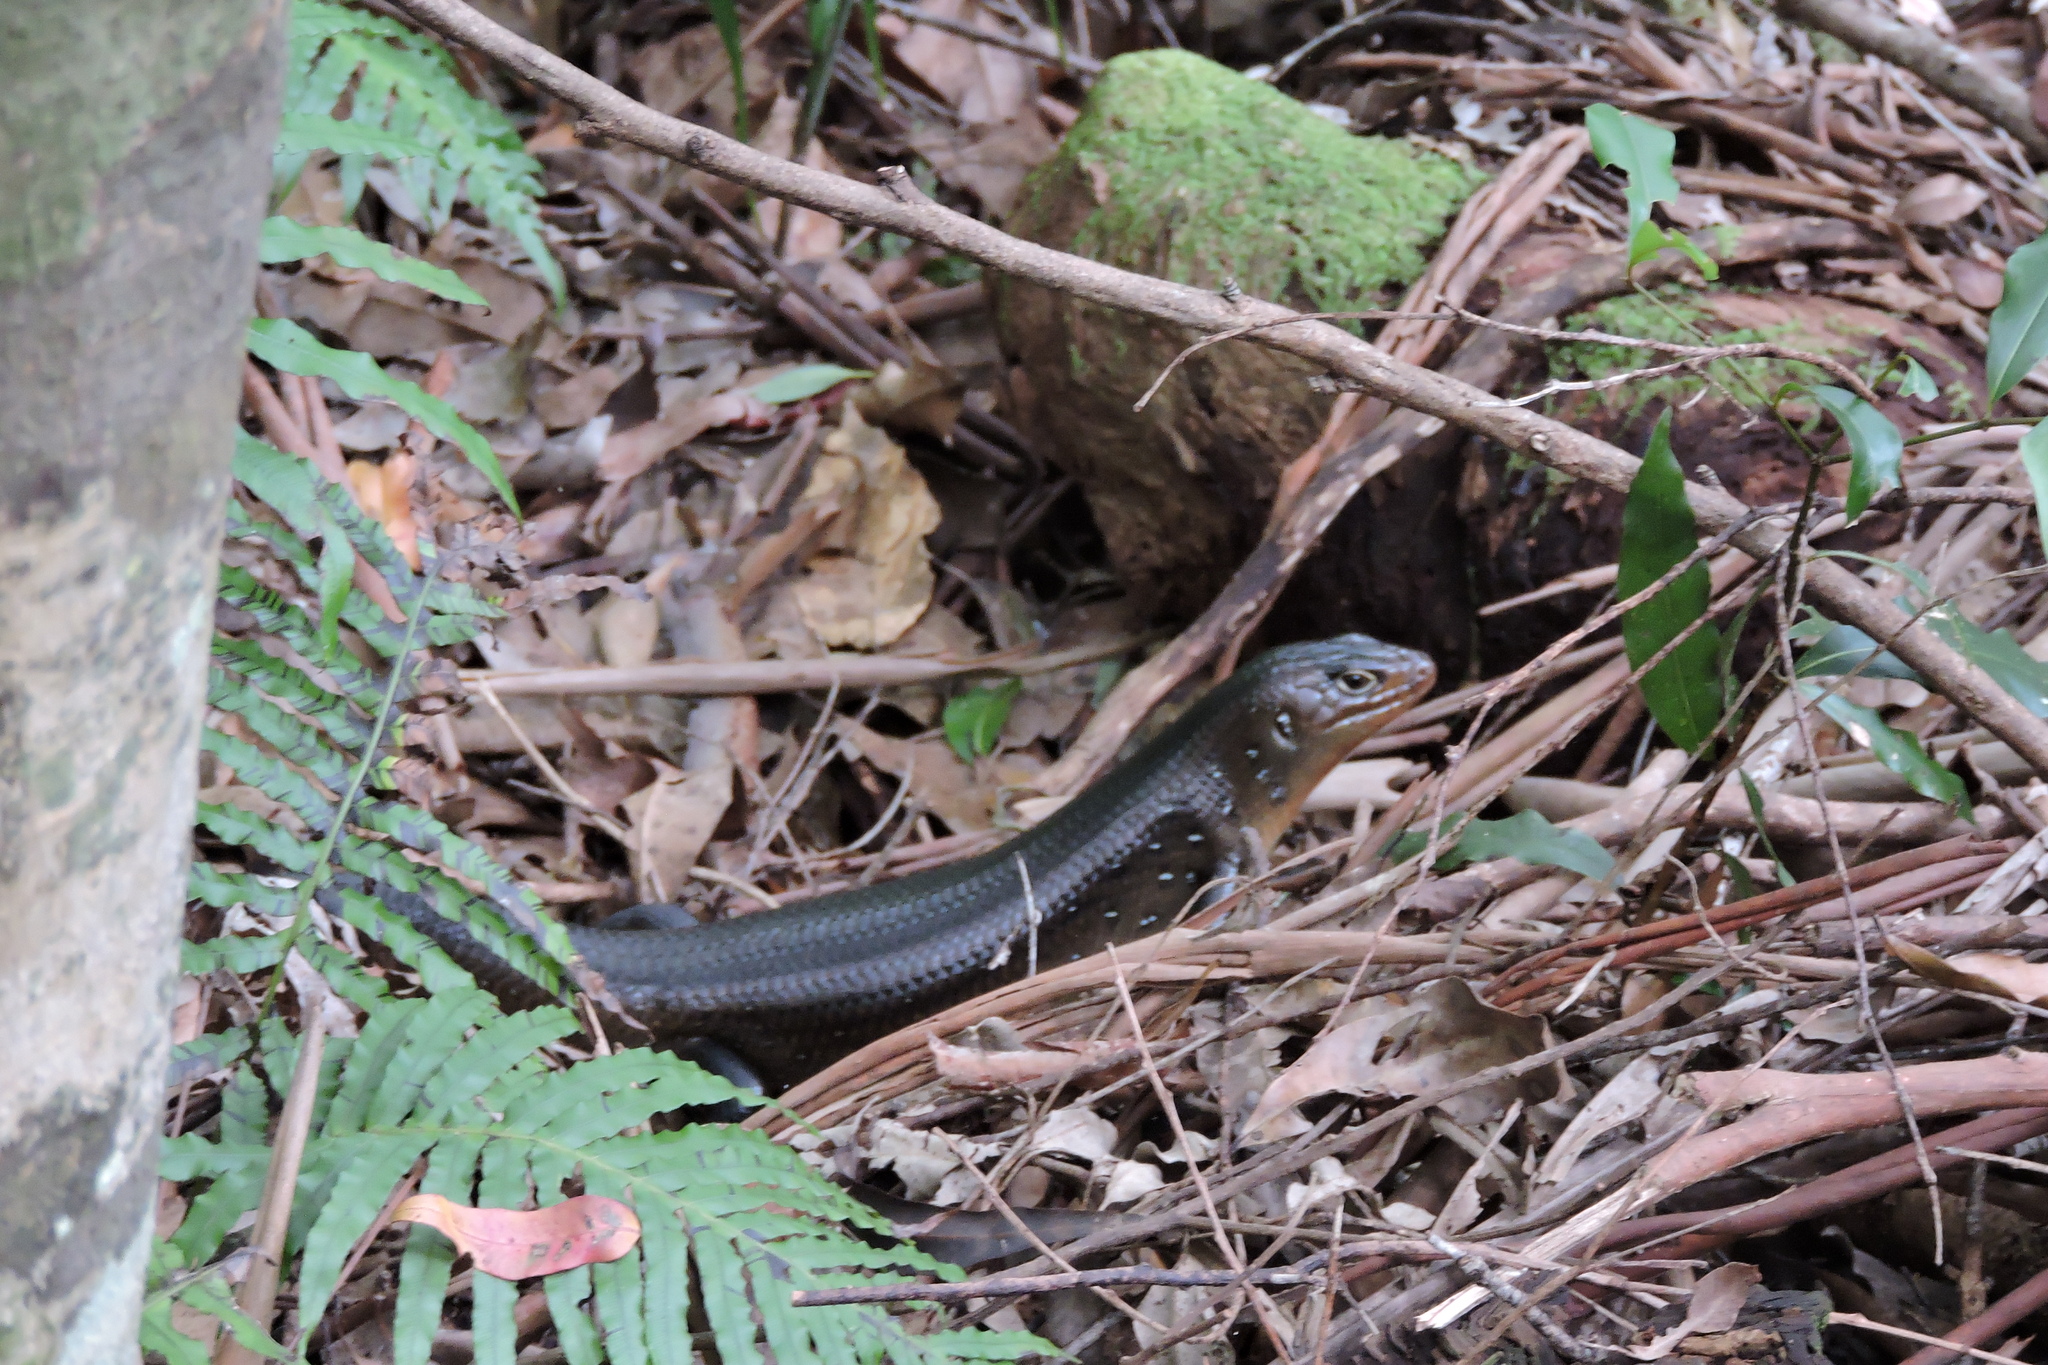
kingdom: Animalia
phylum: Chordata
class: Squamata
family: Scincidae
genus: Bellatorias
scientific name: Bellatorias major
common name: Land mullet
